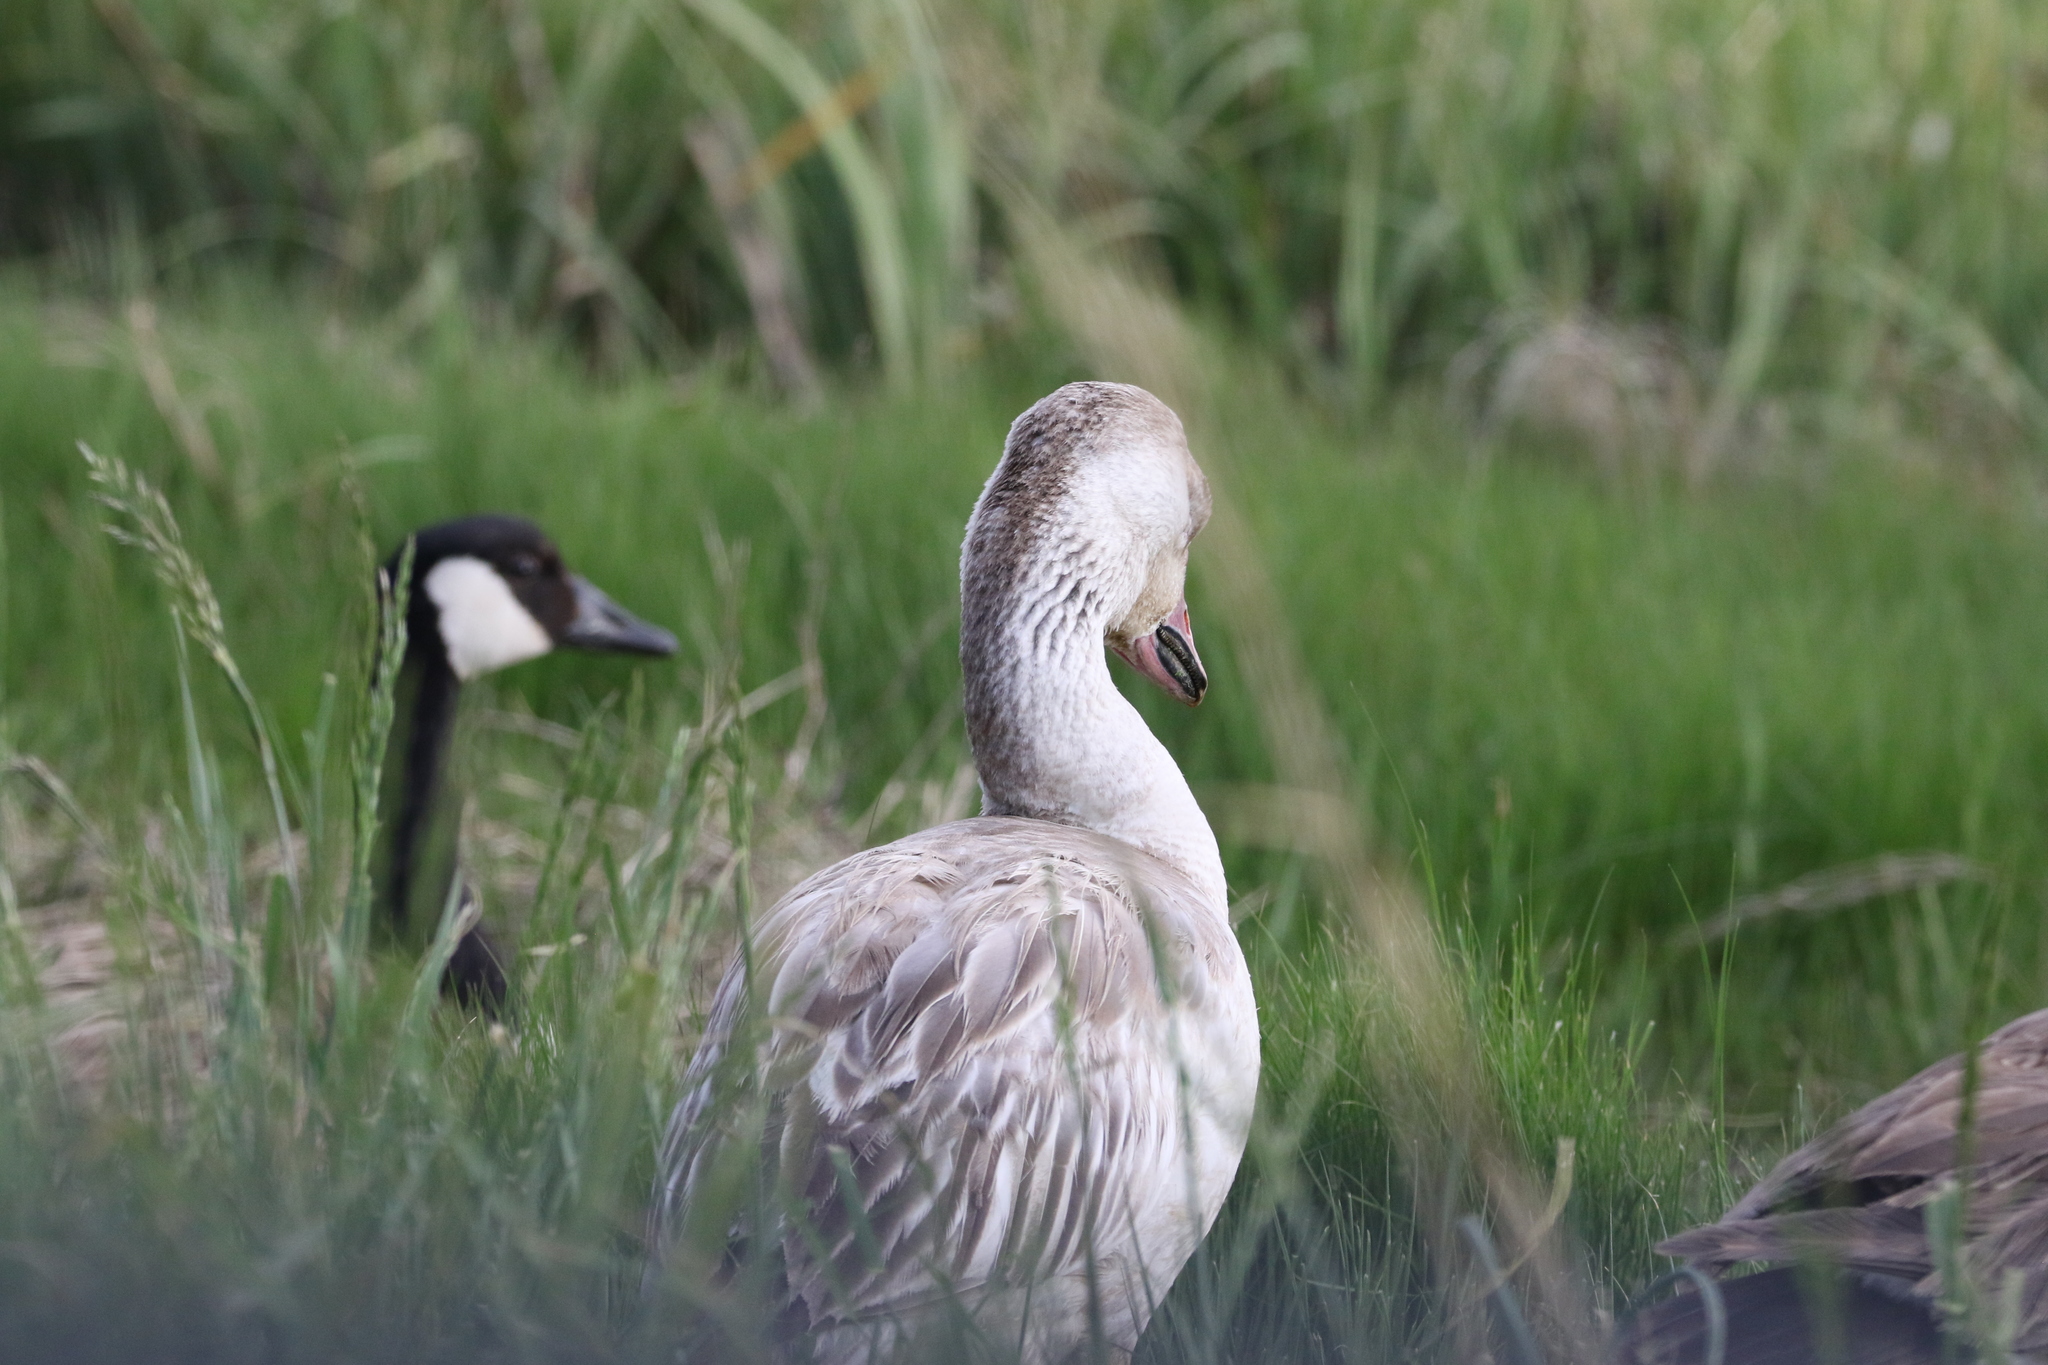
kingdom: Animalia
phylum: Chordata
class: Aves
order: Anseriformes
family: Anatidae
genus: Anser
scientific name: Anser caerulescens
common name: Snow goose
